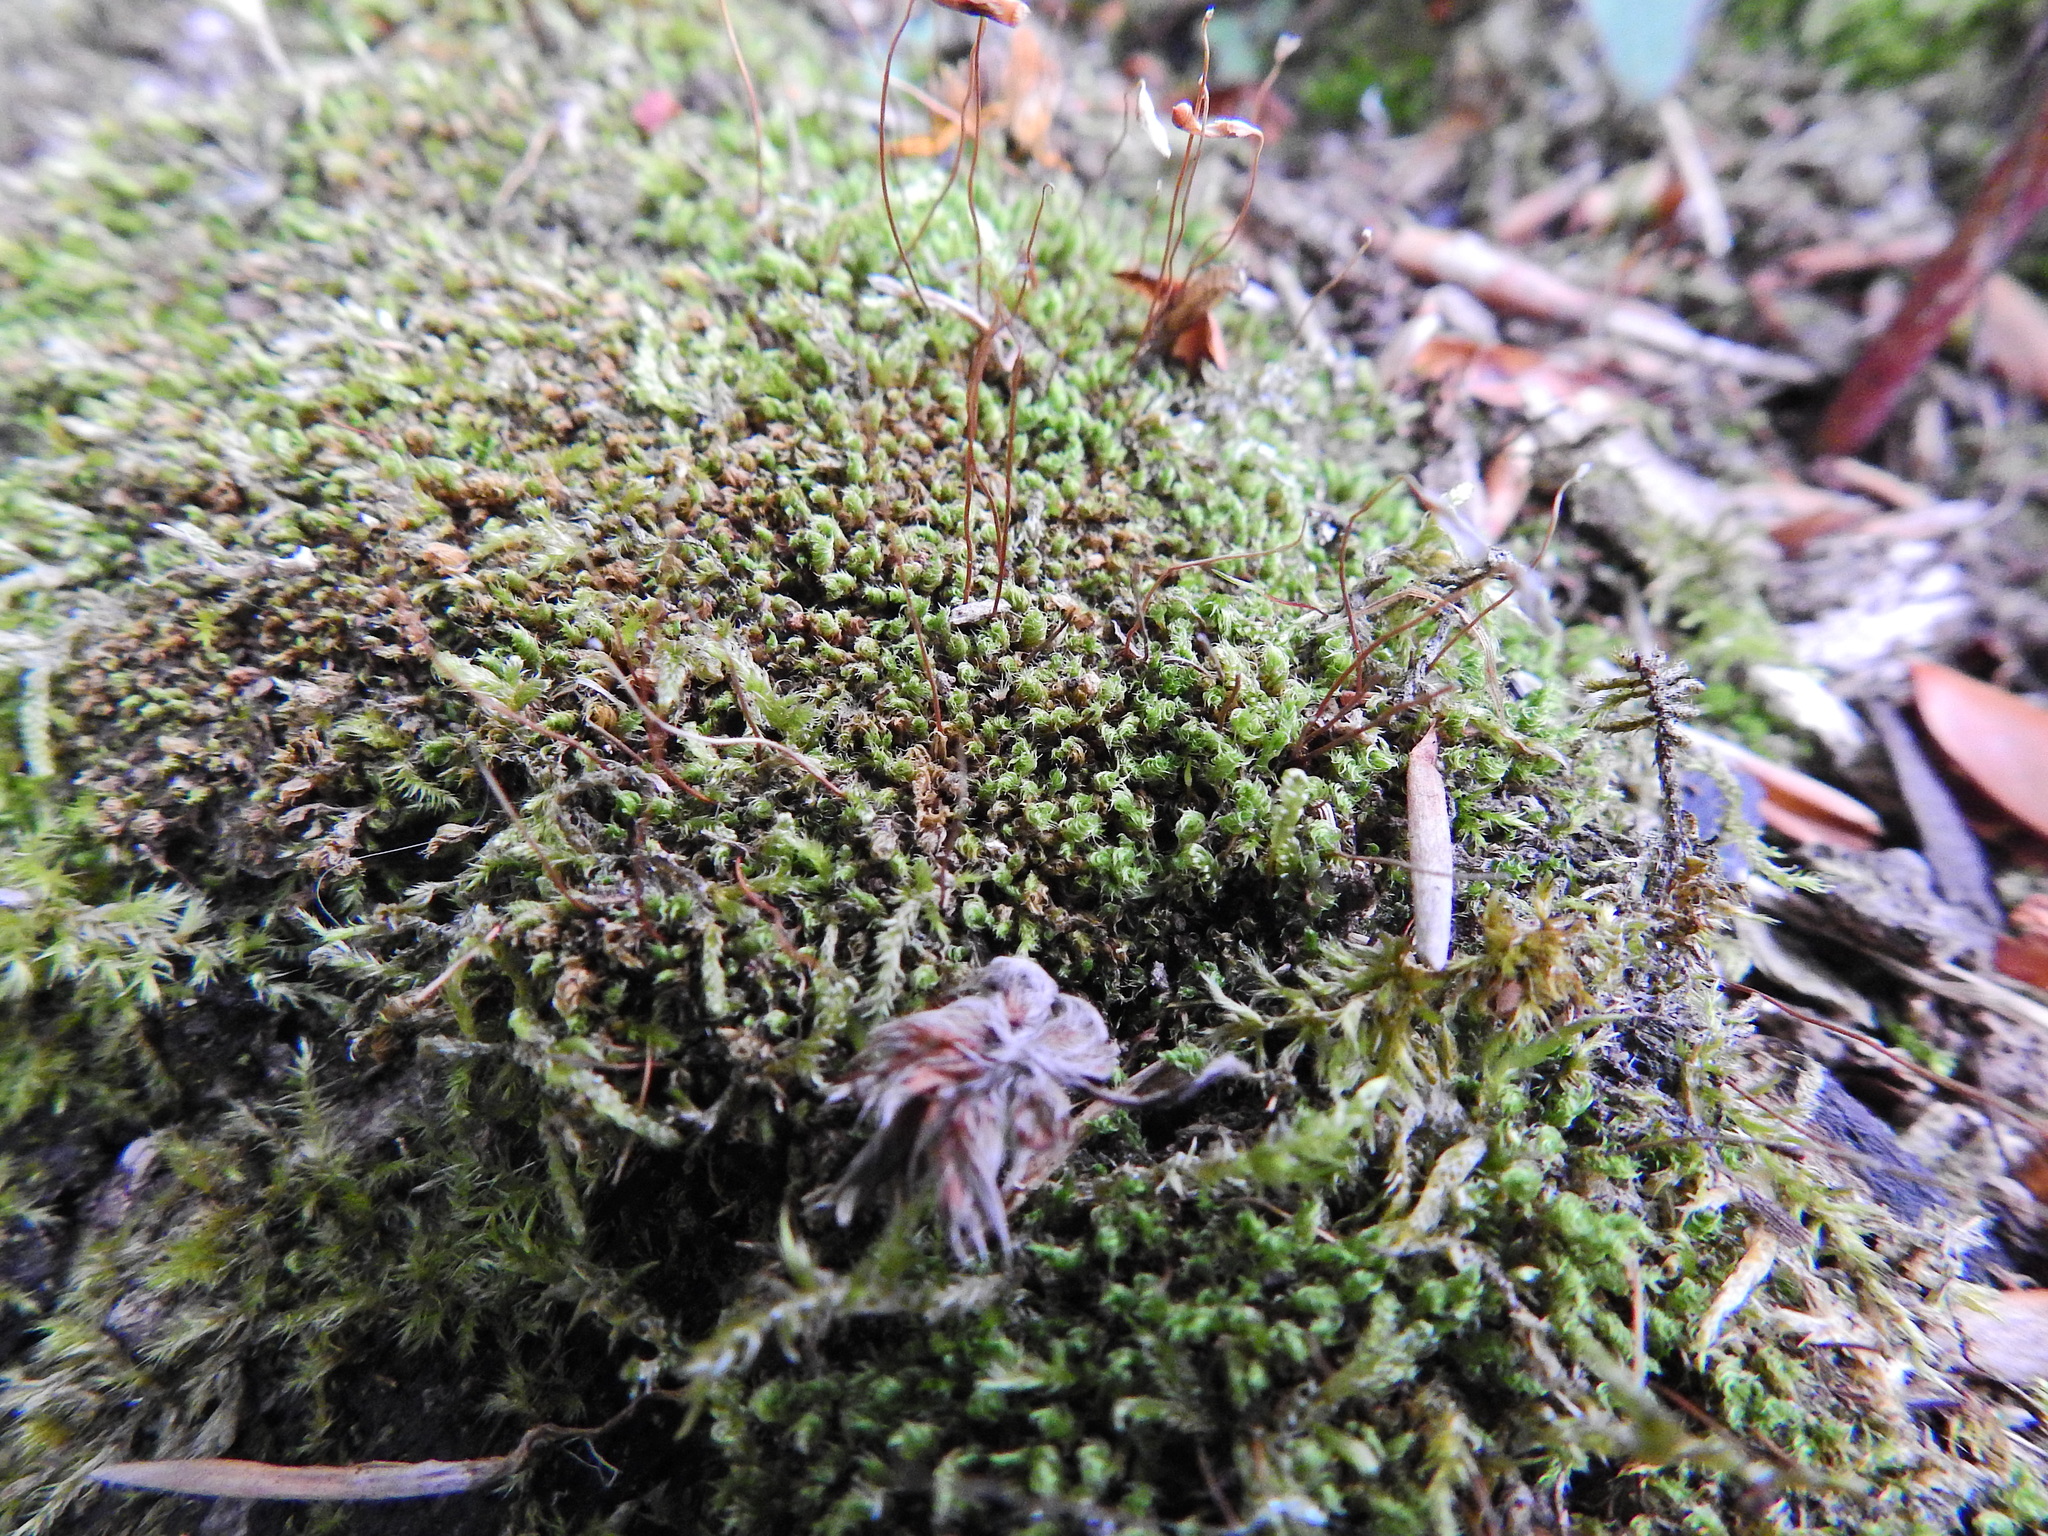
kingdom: Plantae
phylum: Bryophyta
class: Bryopsida
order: Bryales
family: Bryaceae
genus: Rosulabryum
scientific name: Rosulabryum capillare
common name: Capillary thread-moss
